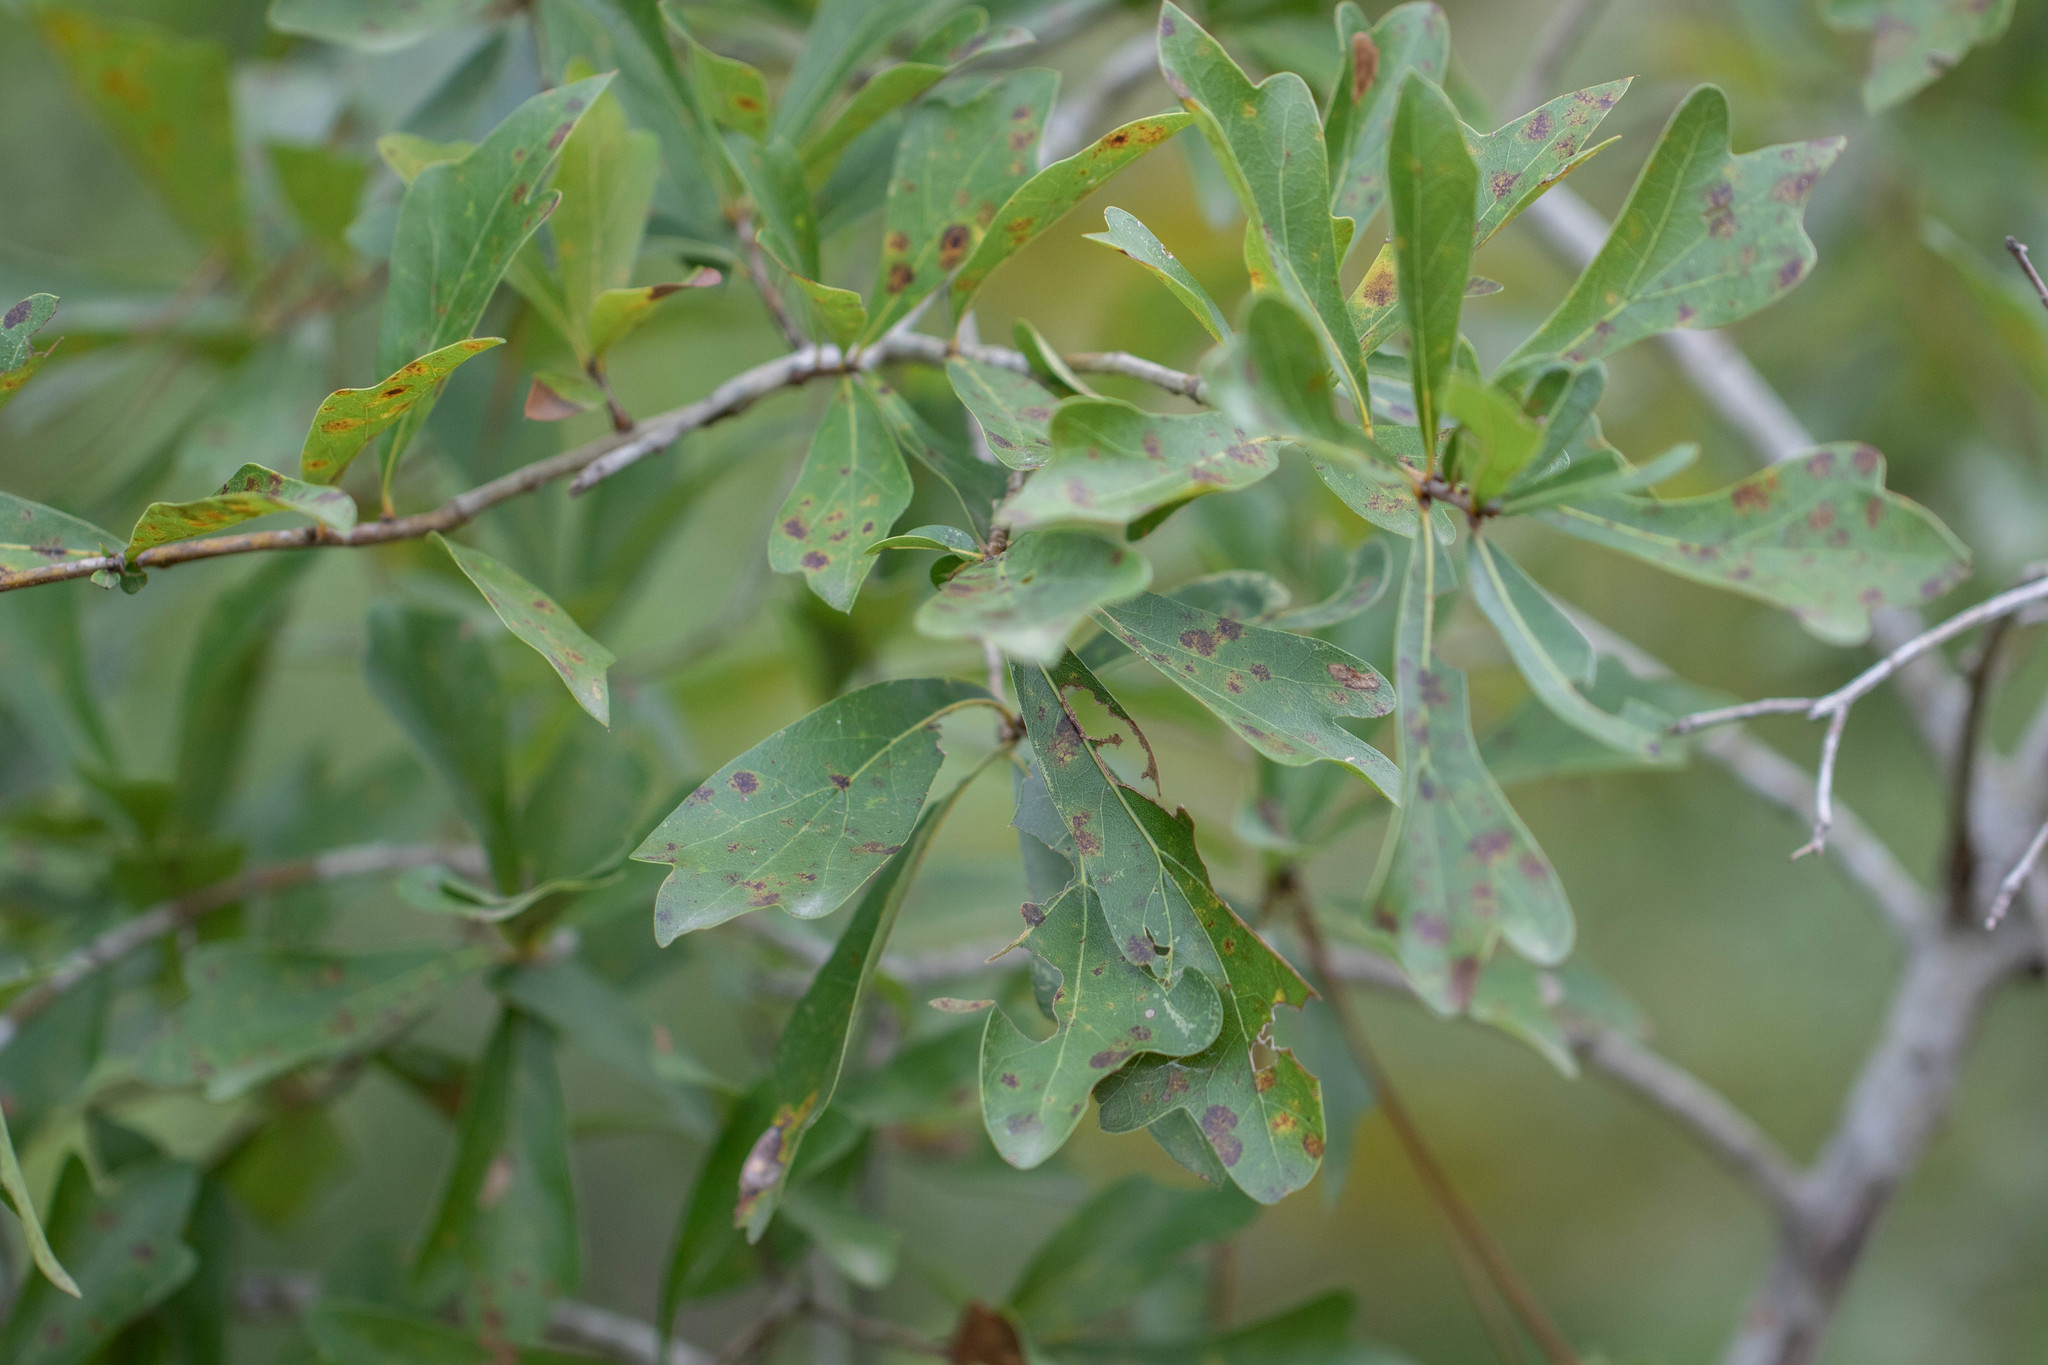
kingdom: Plantae
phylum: Tracheophyta
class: Magnoliopsida
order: Fagales
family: Fagaceae
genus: Quercus
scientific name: Quercus nigra
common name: Water oak
